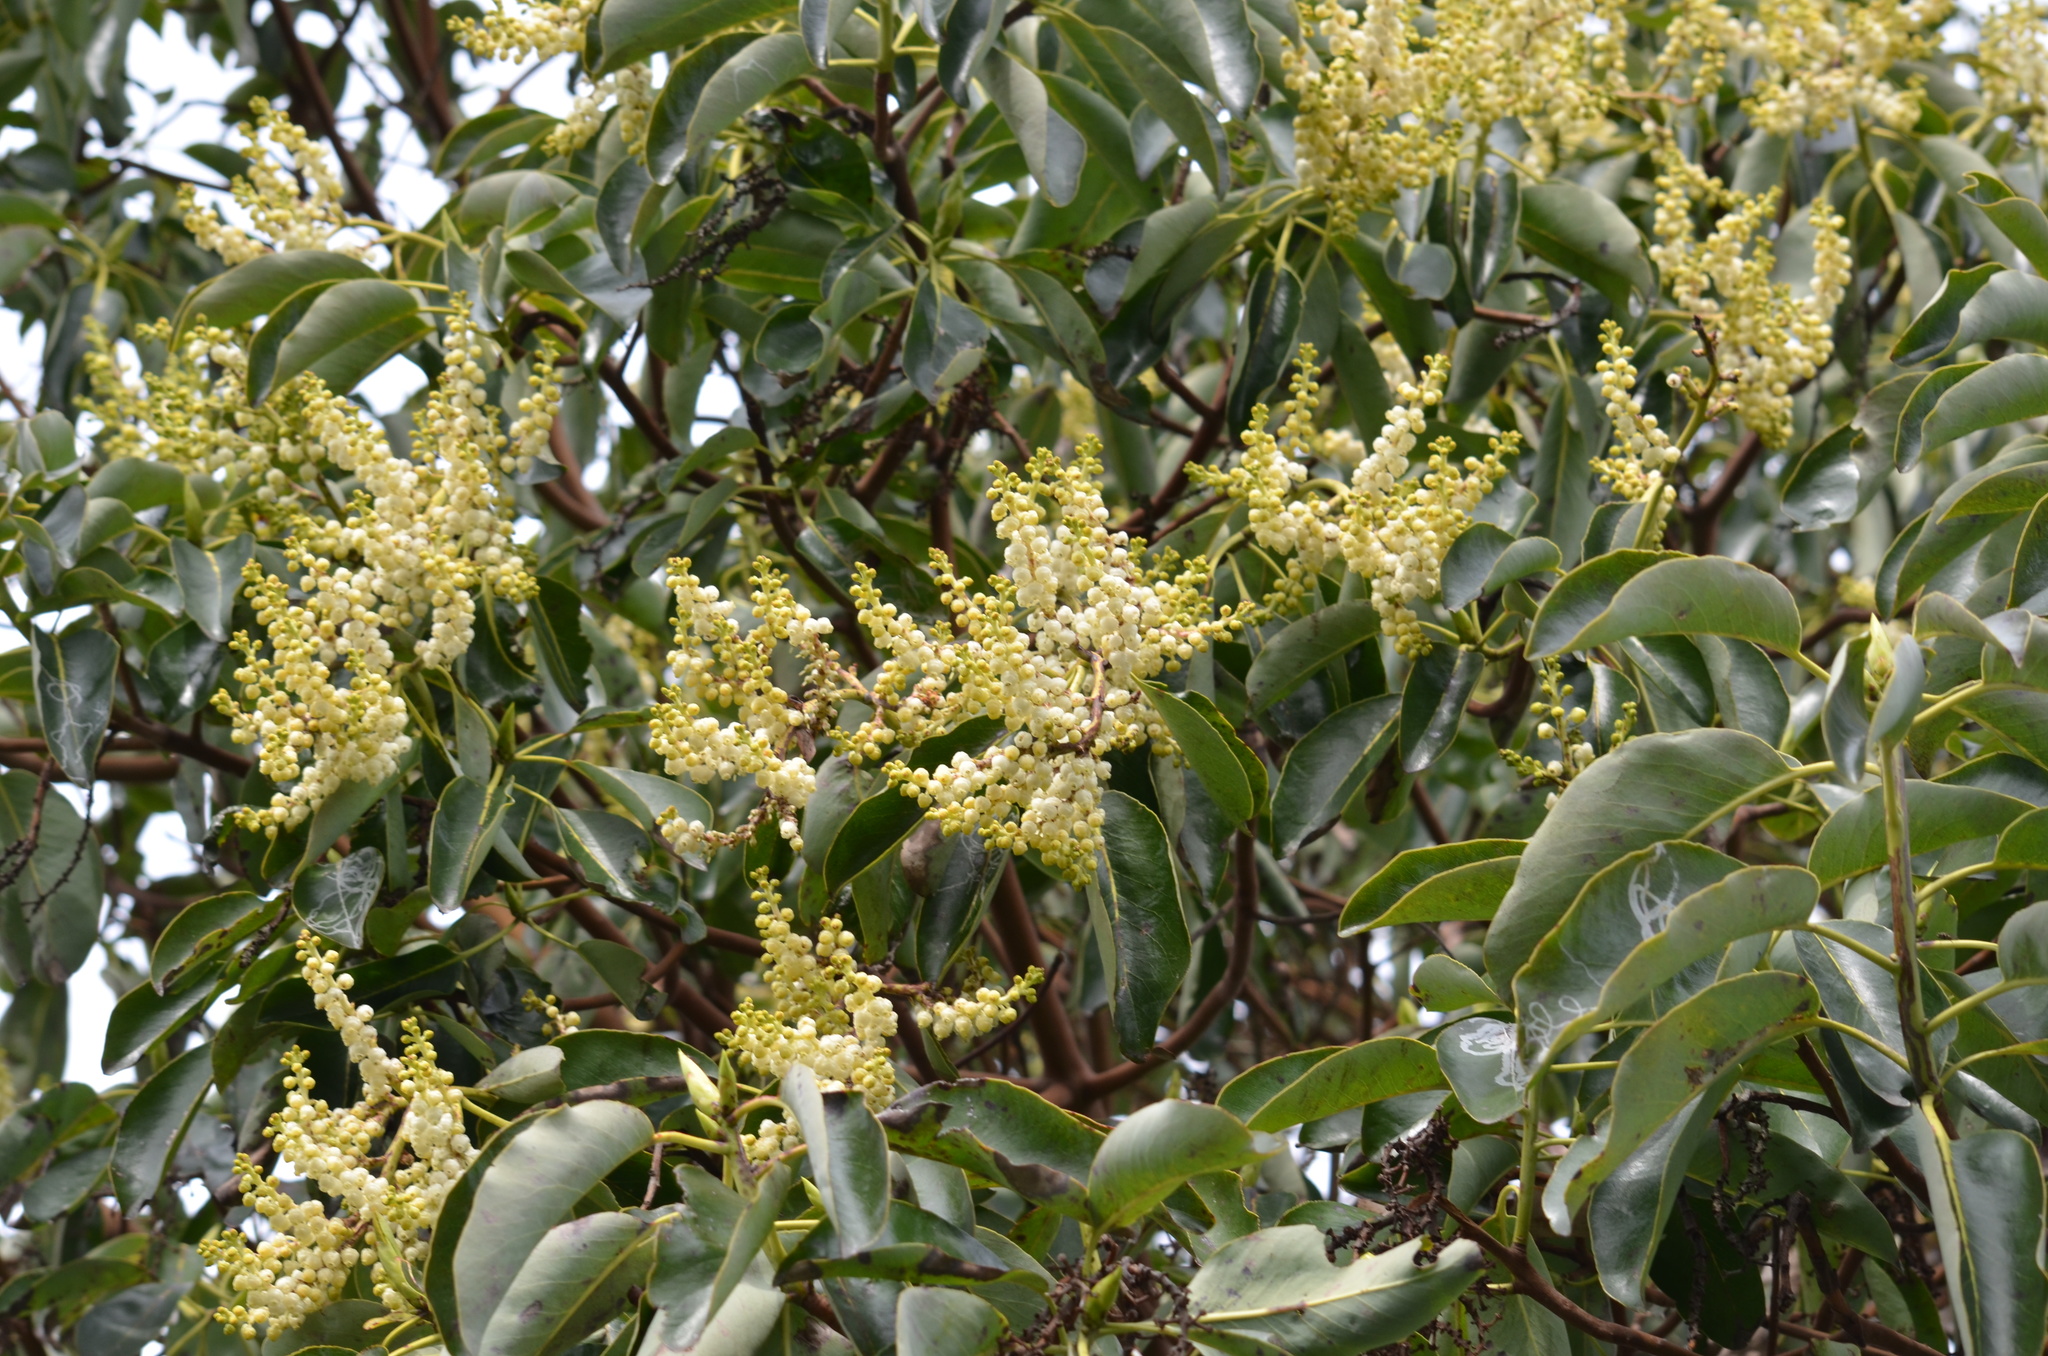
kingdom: Plantae
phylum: Tracheophyta
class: Magnoliopsida
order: Ericales
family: Ericaceae
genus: Arbutus
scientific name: Arbutus menziesii
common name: Pacific madrone
